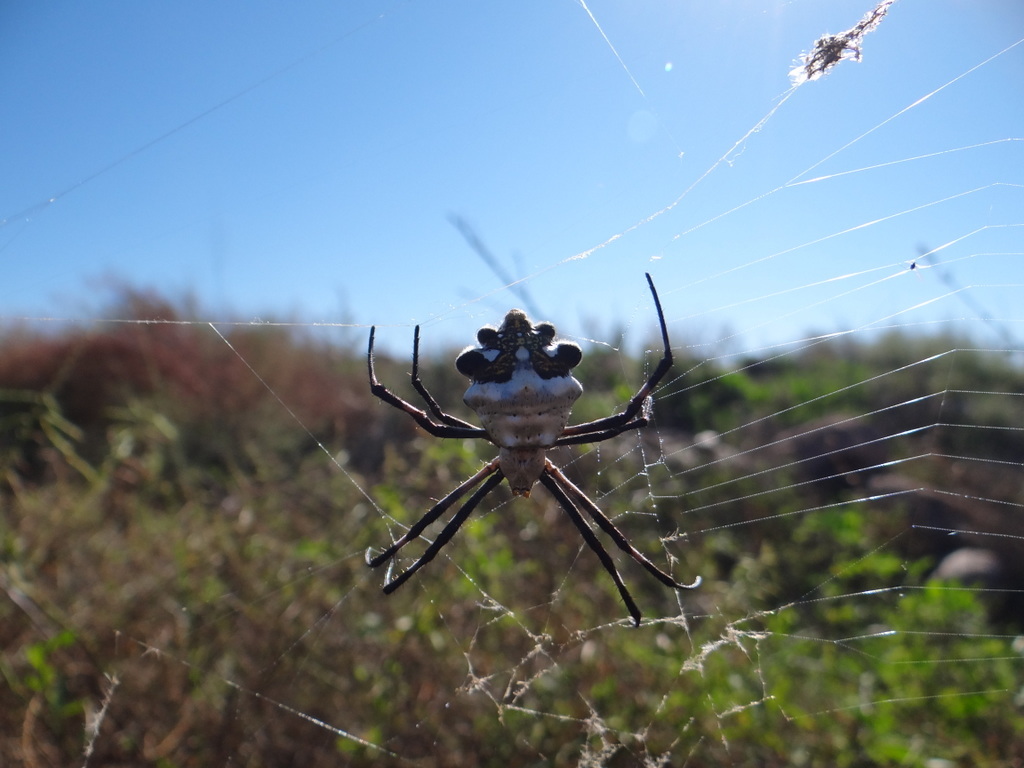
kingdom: Animalia
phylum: Arthropoda
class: Arachnida
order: Araneae
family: Araneidae
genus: Argiope
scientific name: Argiope argentata
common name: Orb weavers
